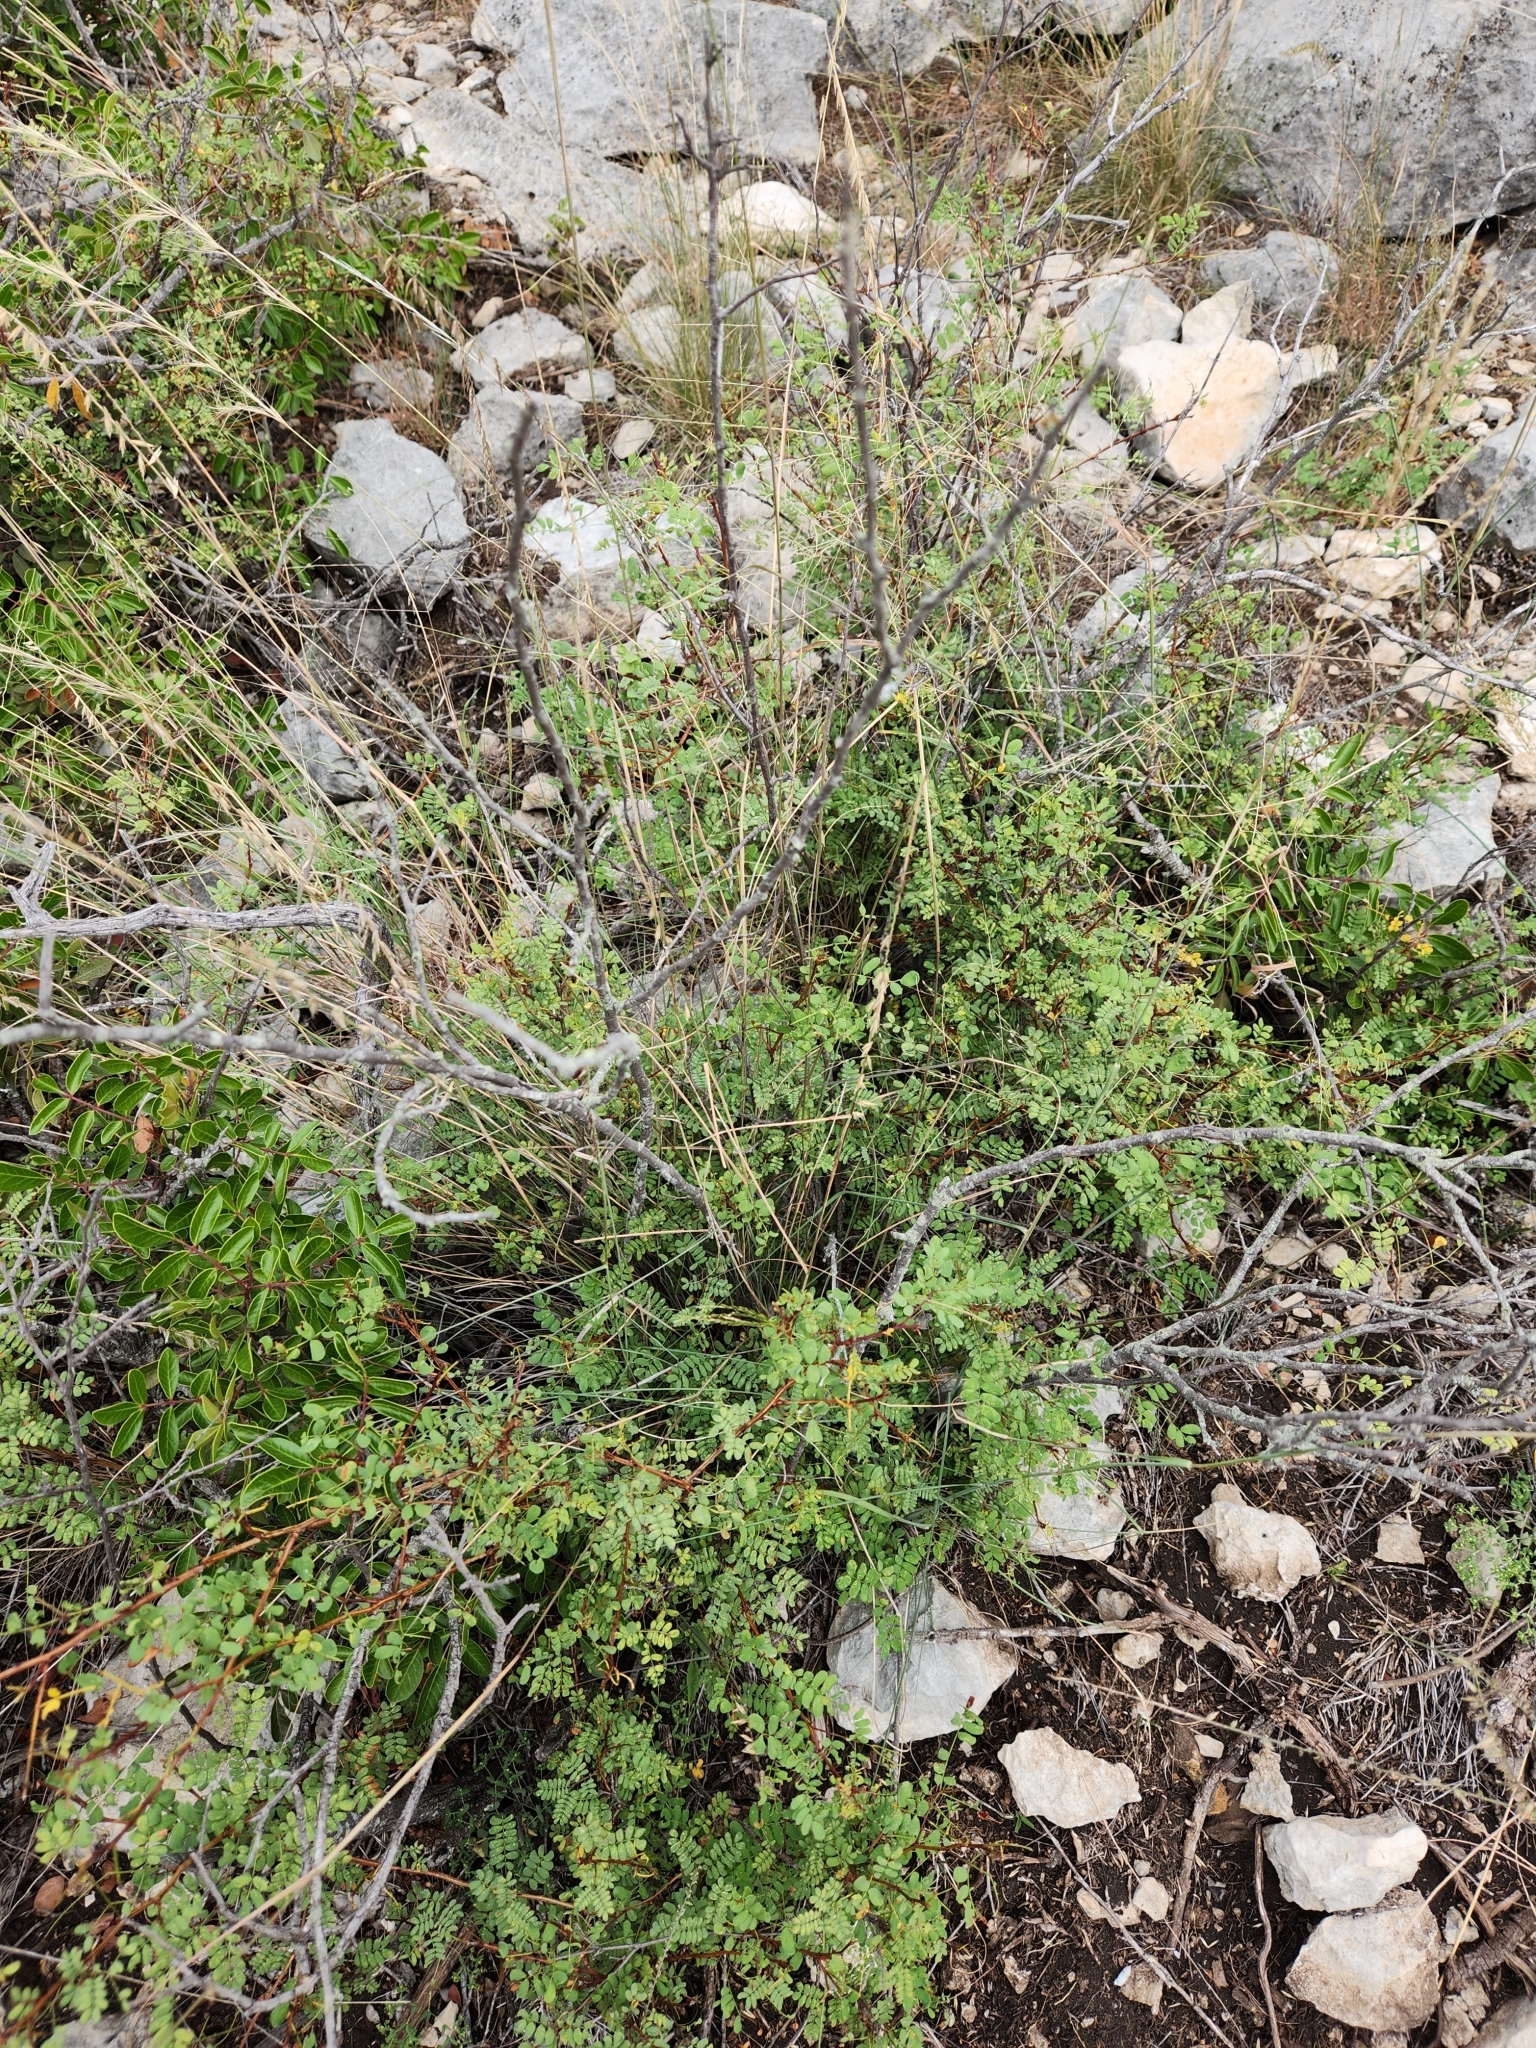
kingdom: Plantae
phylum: Tracheophyta
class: Magnoliopsida
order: Fabales
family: Fabaceae
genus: Senegalia
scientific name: Senegalia roemeriana
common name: Roemer's acacia
